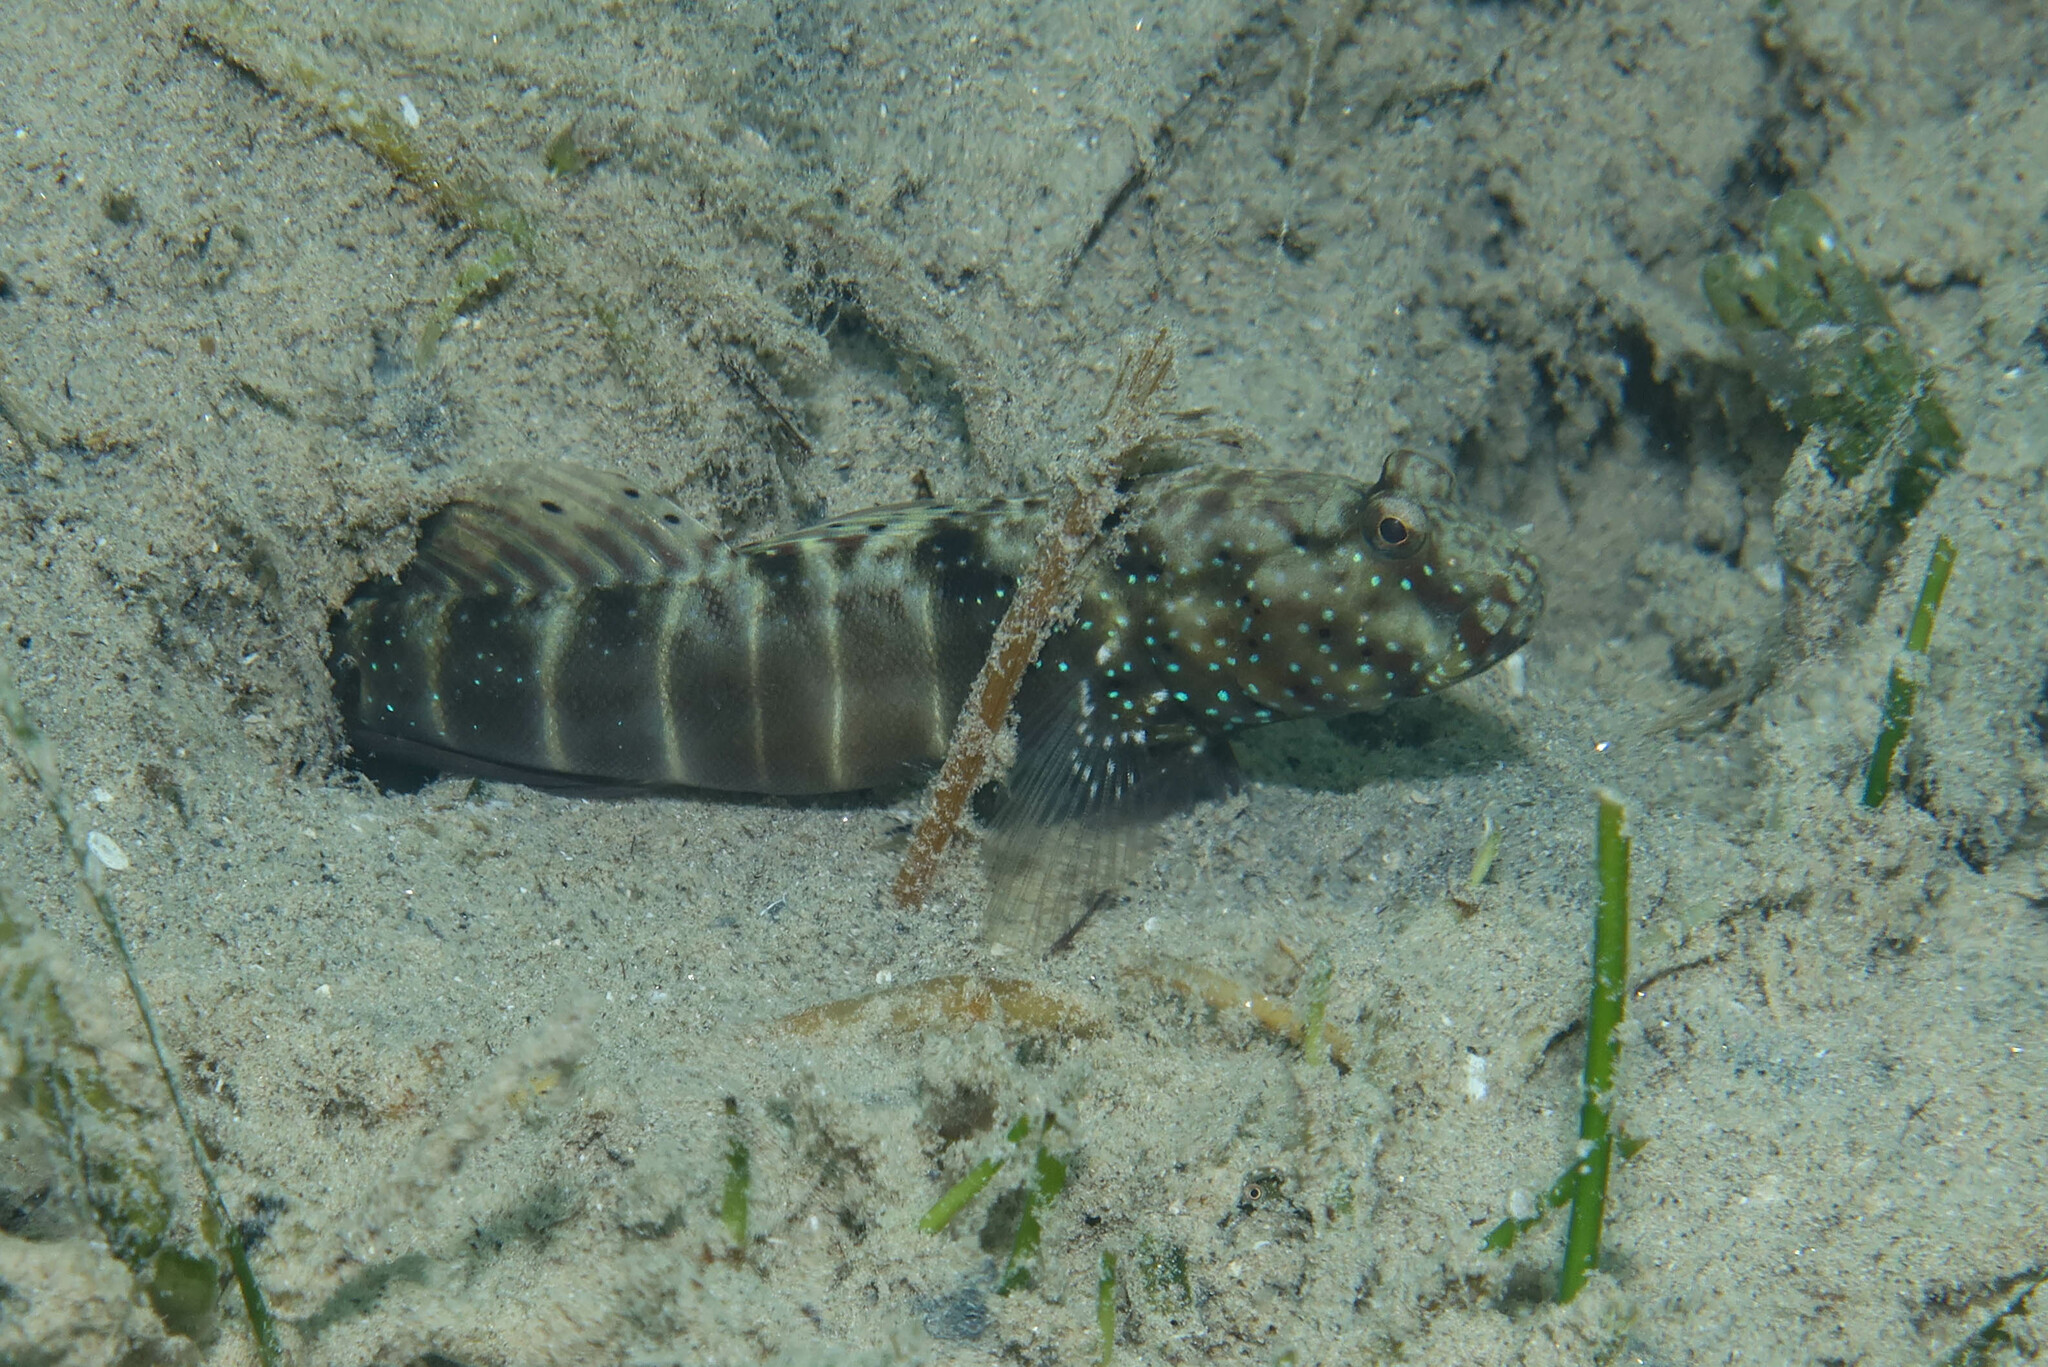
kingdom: Animalia
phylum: Chordata
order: Perciformes
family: Gobiidae
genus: Cryptocentrus
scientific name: Cryptocentrus cryptocentrus
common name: Ninebar prawn-goby
